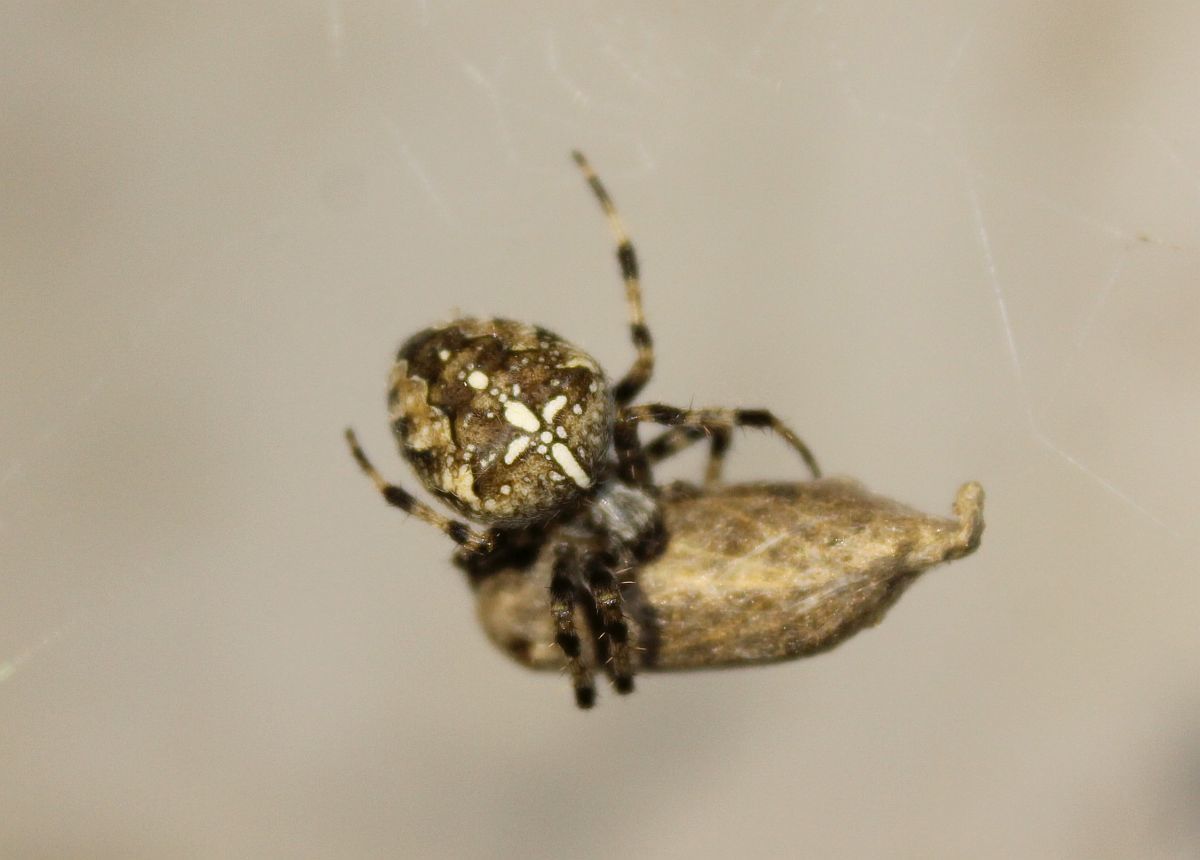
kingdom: Animalia
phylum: Arthropoda
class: Arachnida
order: Araneae
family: Araneidae
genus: Araneus
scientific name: Araneus diadematus
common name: Cross orbweaver
